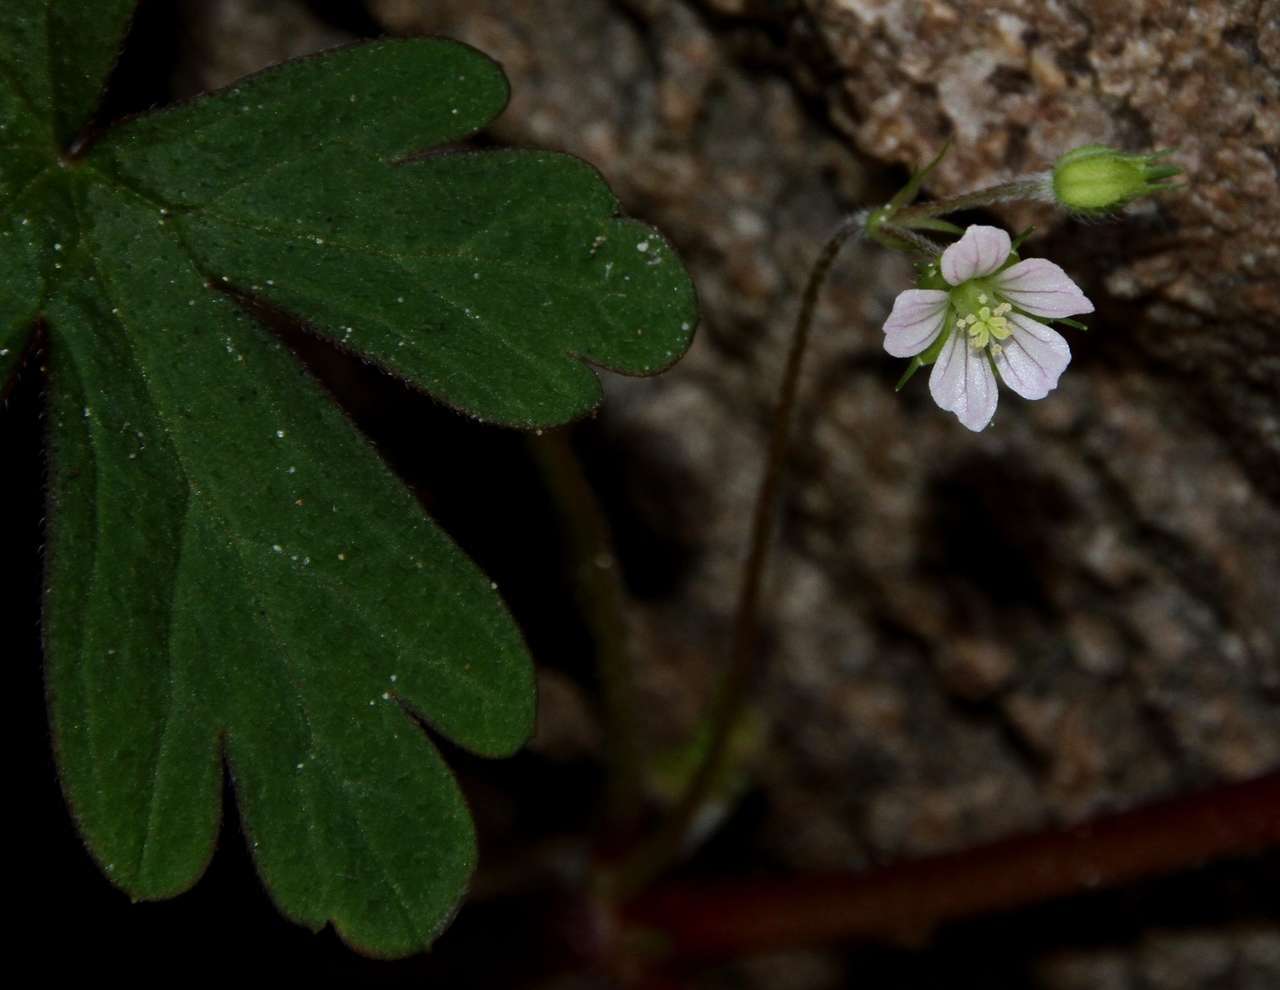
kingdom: Plantae
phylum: Tracheophyta
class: Magnoliopsida
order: Geraniales
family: Geraniaceae
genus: Geranium
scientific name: Geranium homeanum
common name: Australasian geranium
